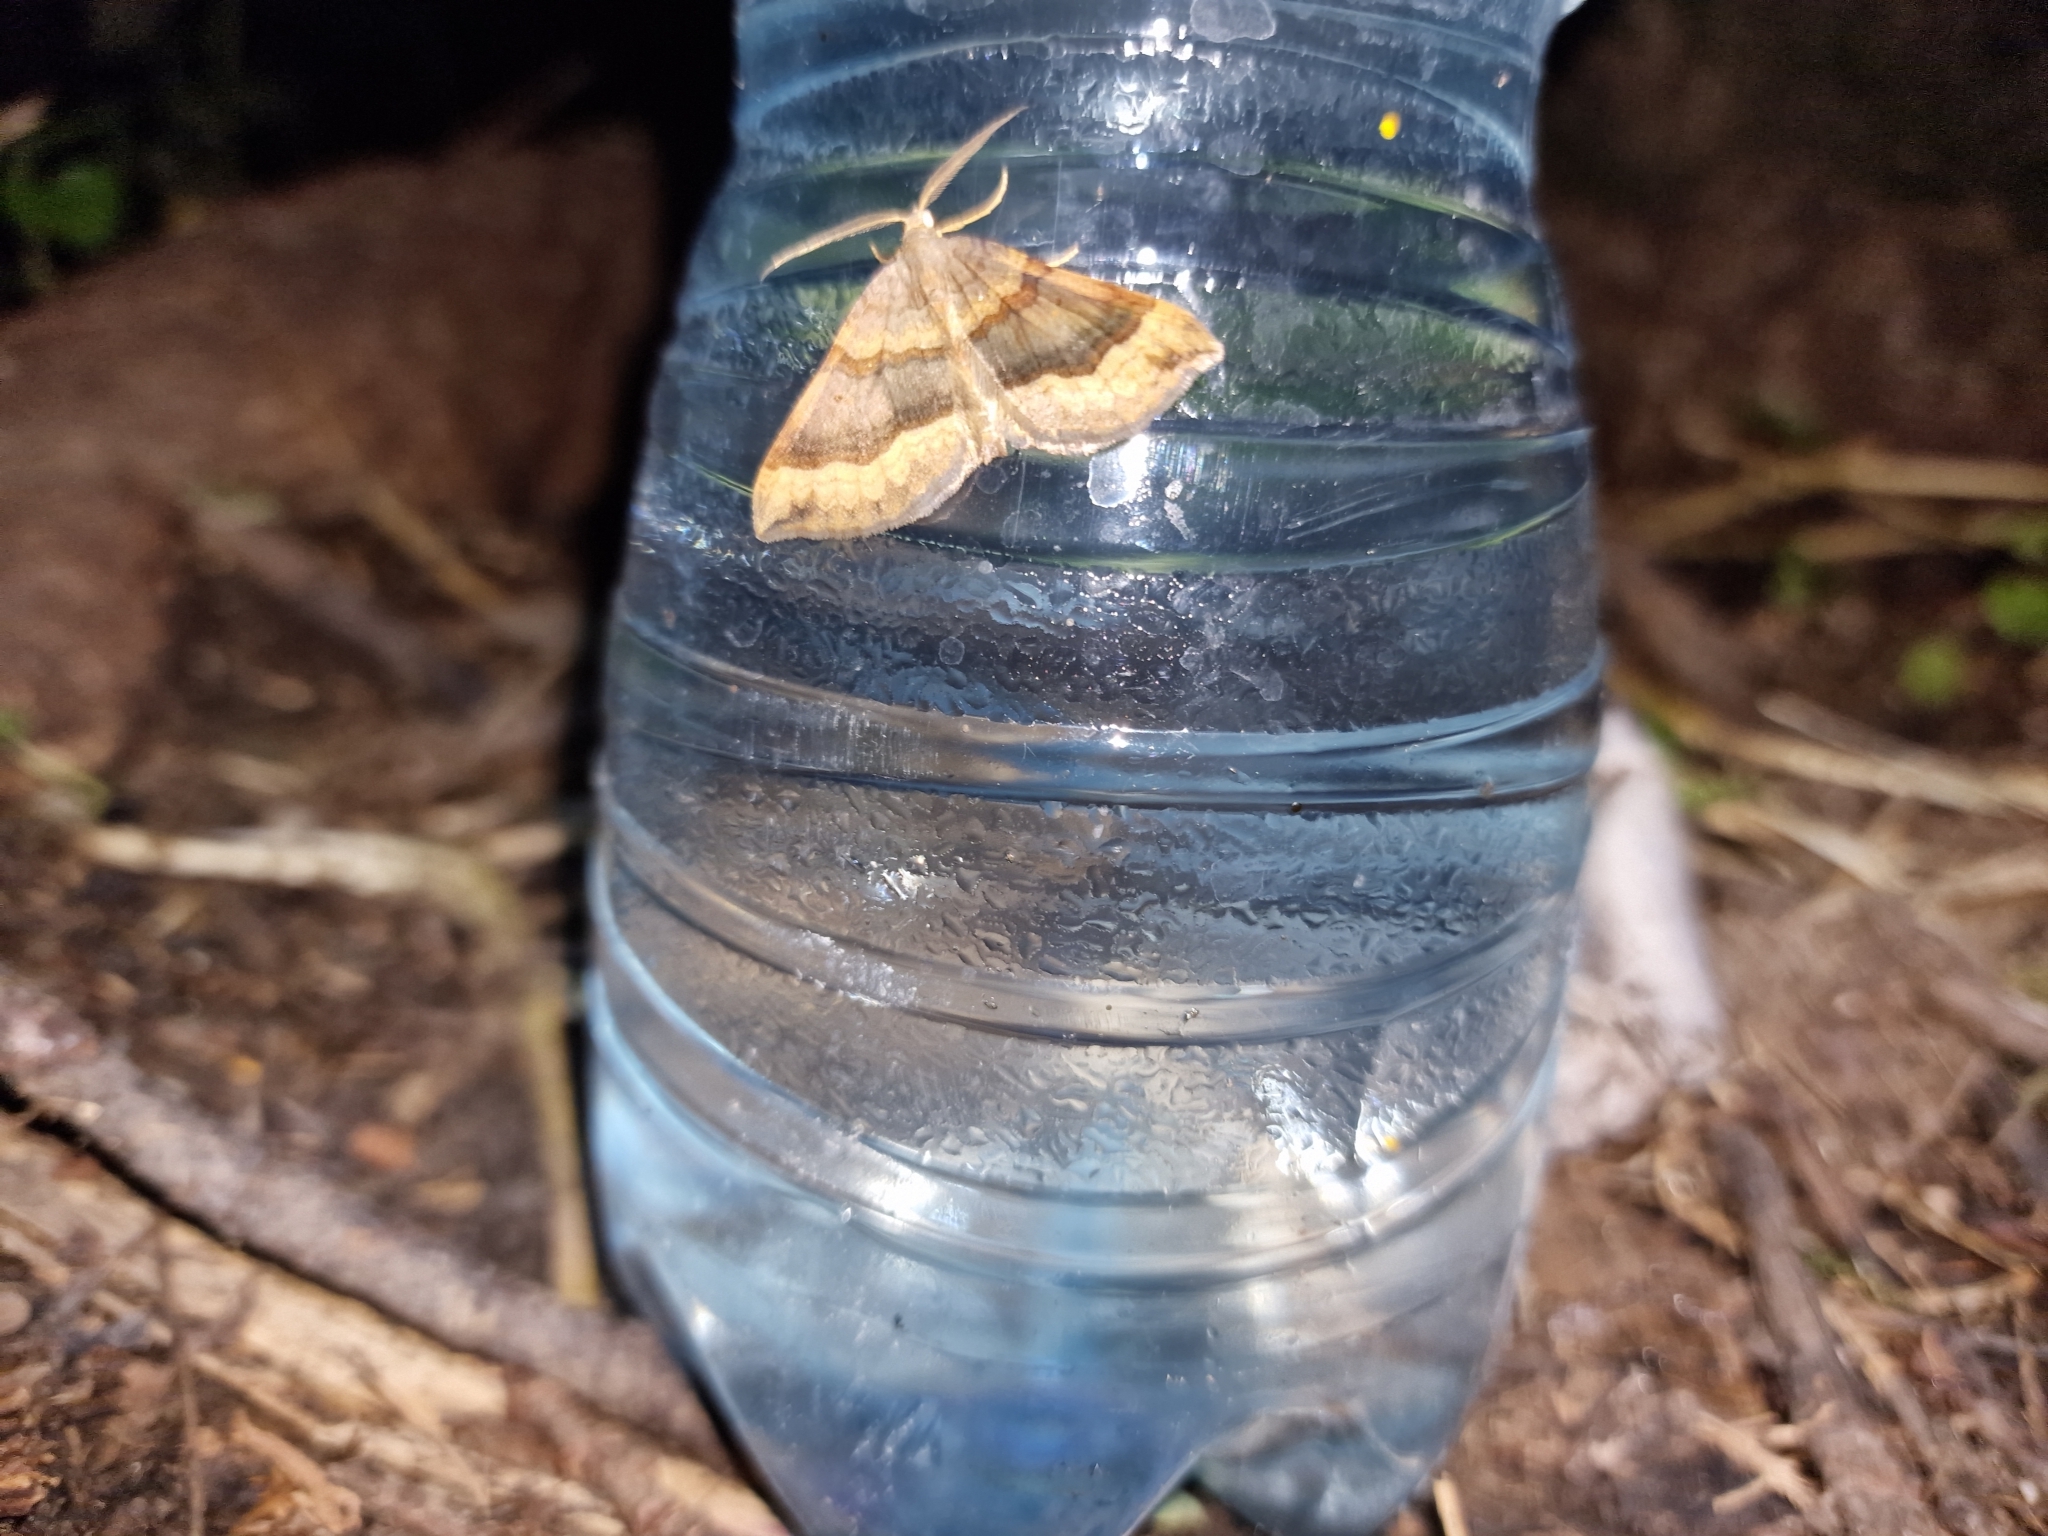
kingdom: Animalia
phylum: Arthropoda
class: Insecta
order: Lepidoptera
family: Geometridae
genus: Scotopteryx
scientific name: Scotopteryx chenopodiata
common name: Shaded broad-bar
